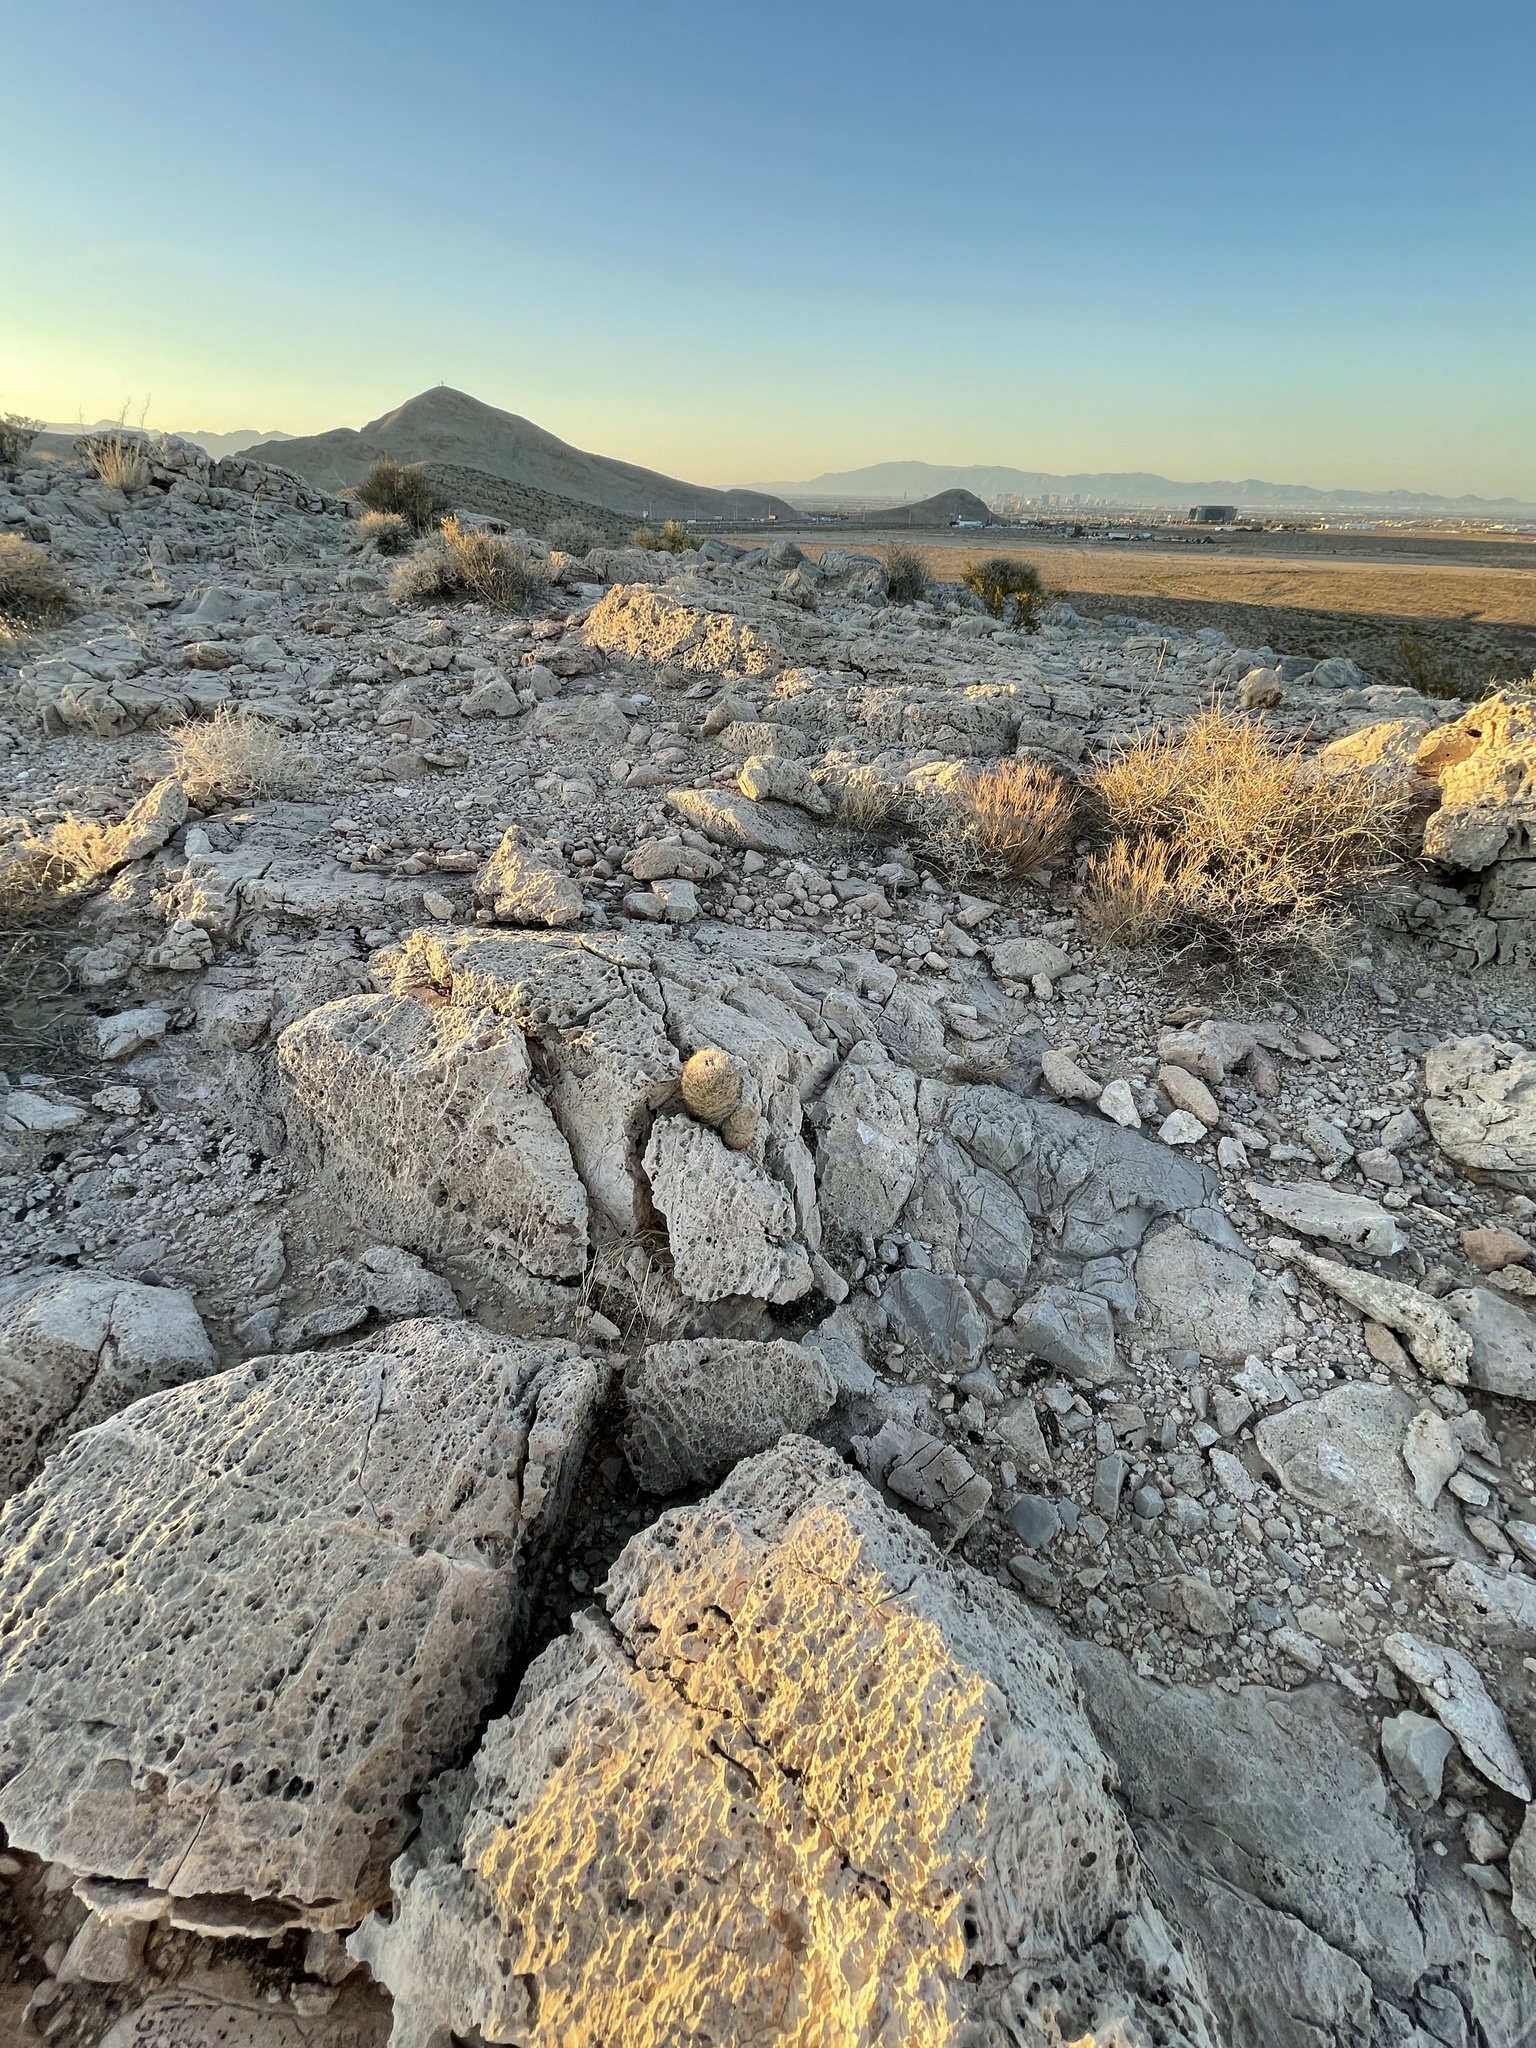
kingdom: Plantae
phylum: Tracheophyta
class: Magnoliopsida
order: Caryophyllales
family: Cactaceae
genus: Pelecyphora
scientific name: Pelecyphora dasyacantha
